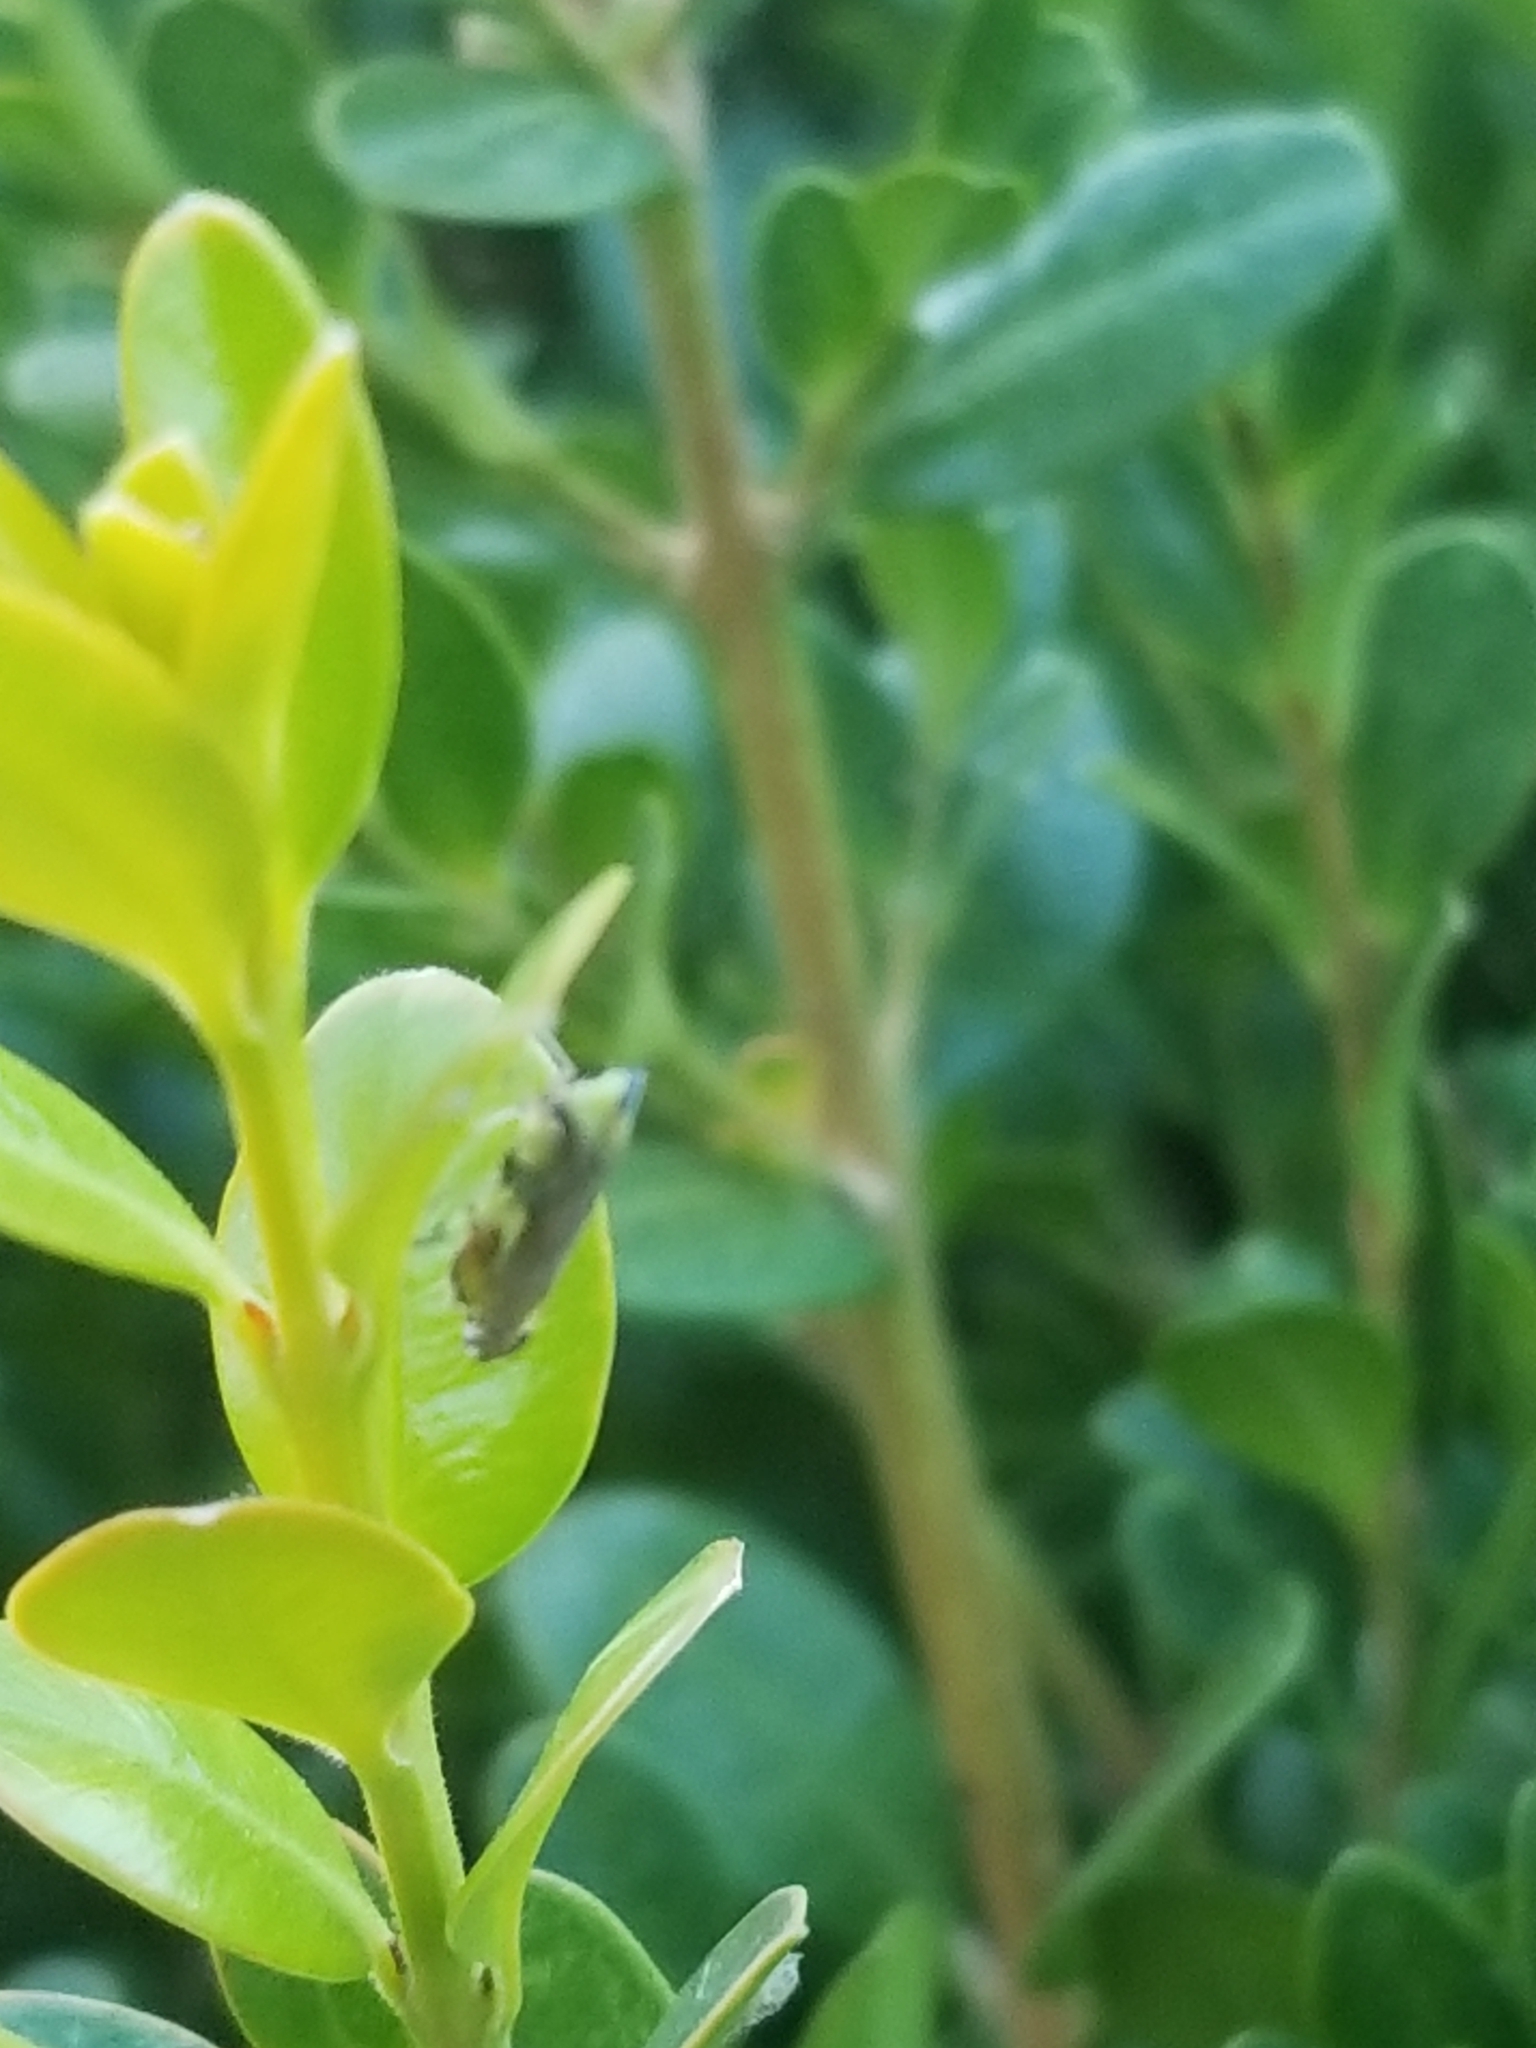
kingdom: Animalia
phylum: Arthropoda
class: Insecta
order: Hemiptera
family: Cicadellidae
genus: Fieberiella
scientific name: Fieberiella florii
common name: Flor’s leafhopper
